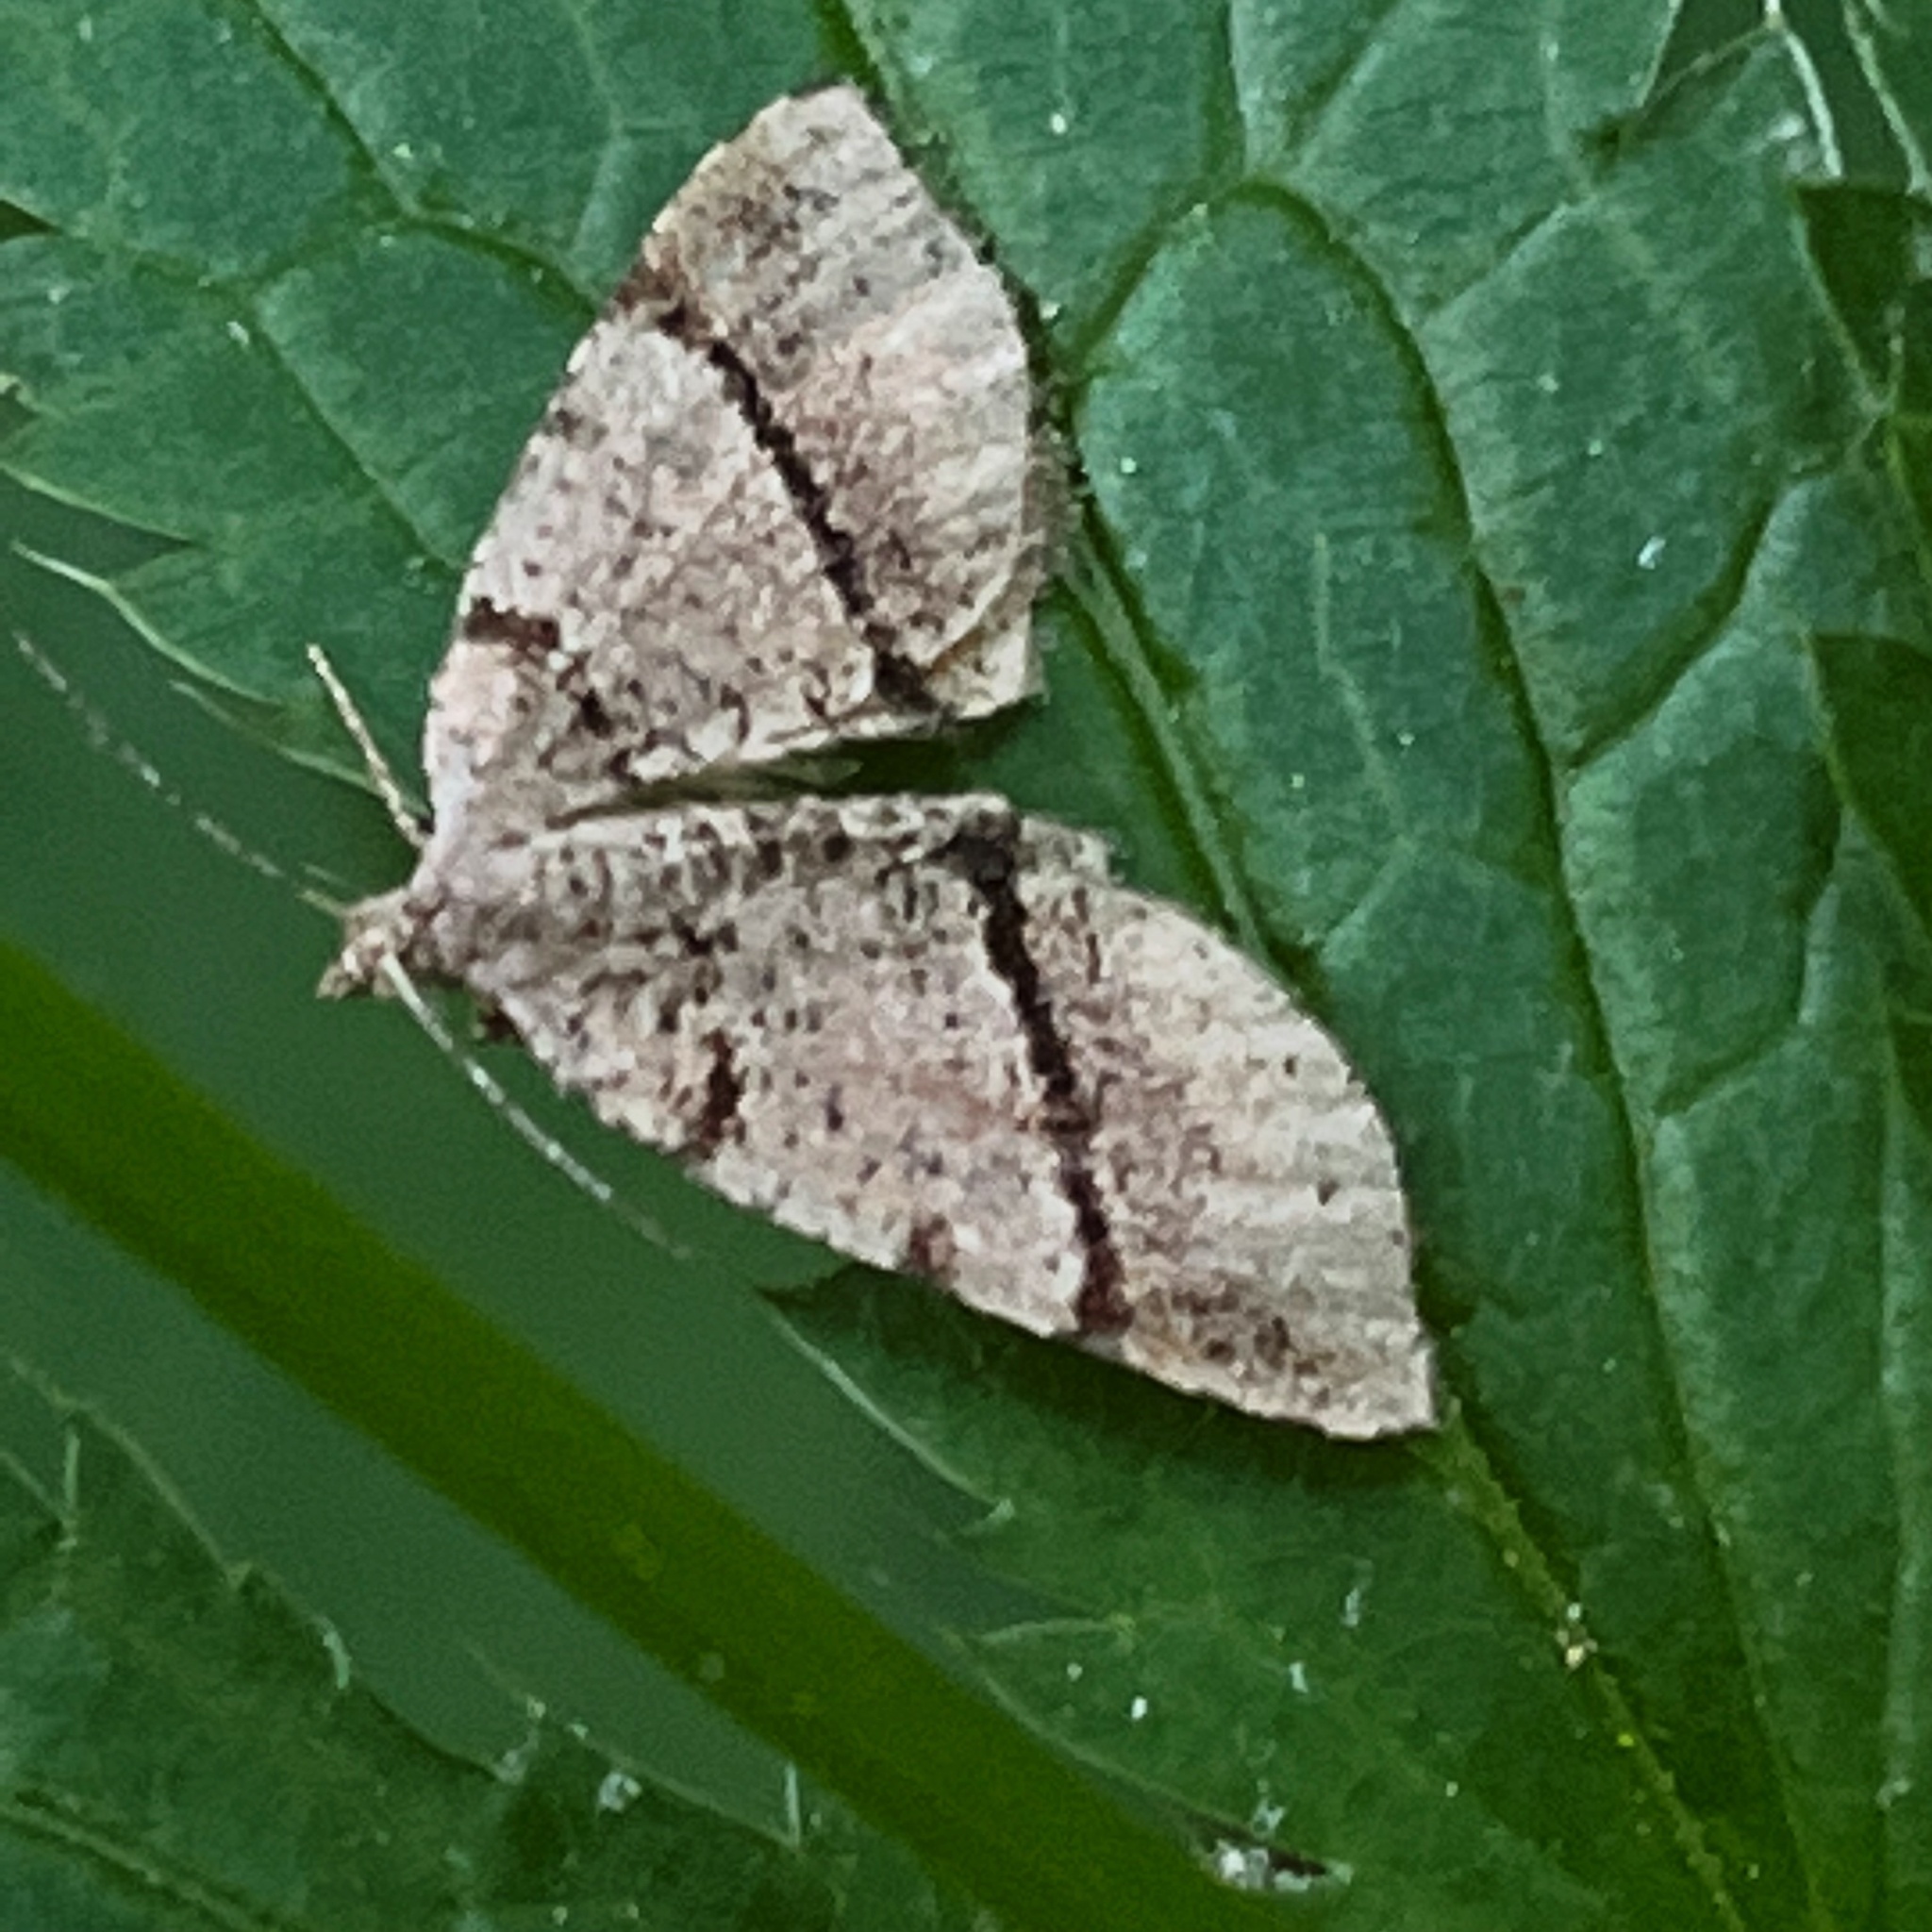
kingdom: Animalia
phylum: Arthropoda
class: Insecta
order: Lepidoptera
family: Geometridae
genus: Mellilla
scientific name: Mellilla xanthometata
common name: Orange wing moth
